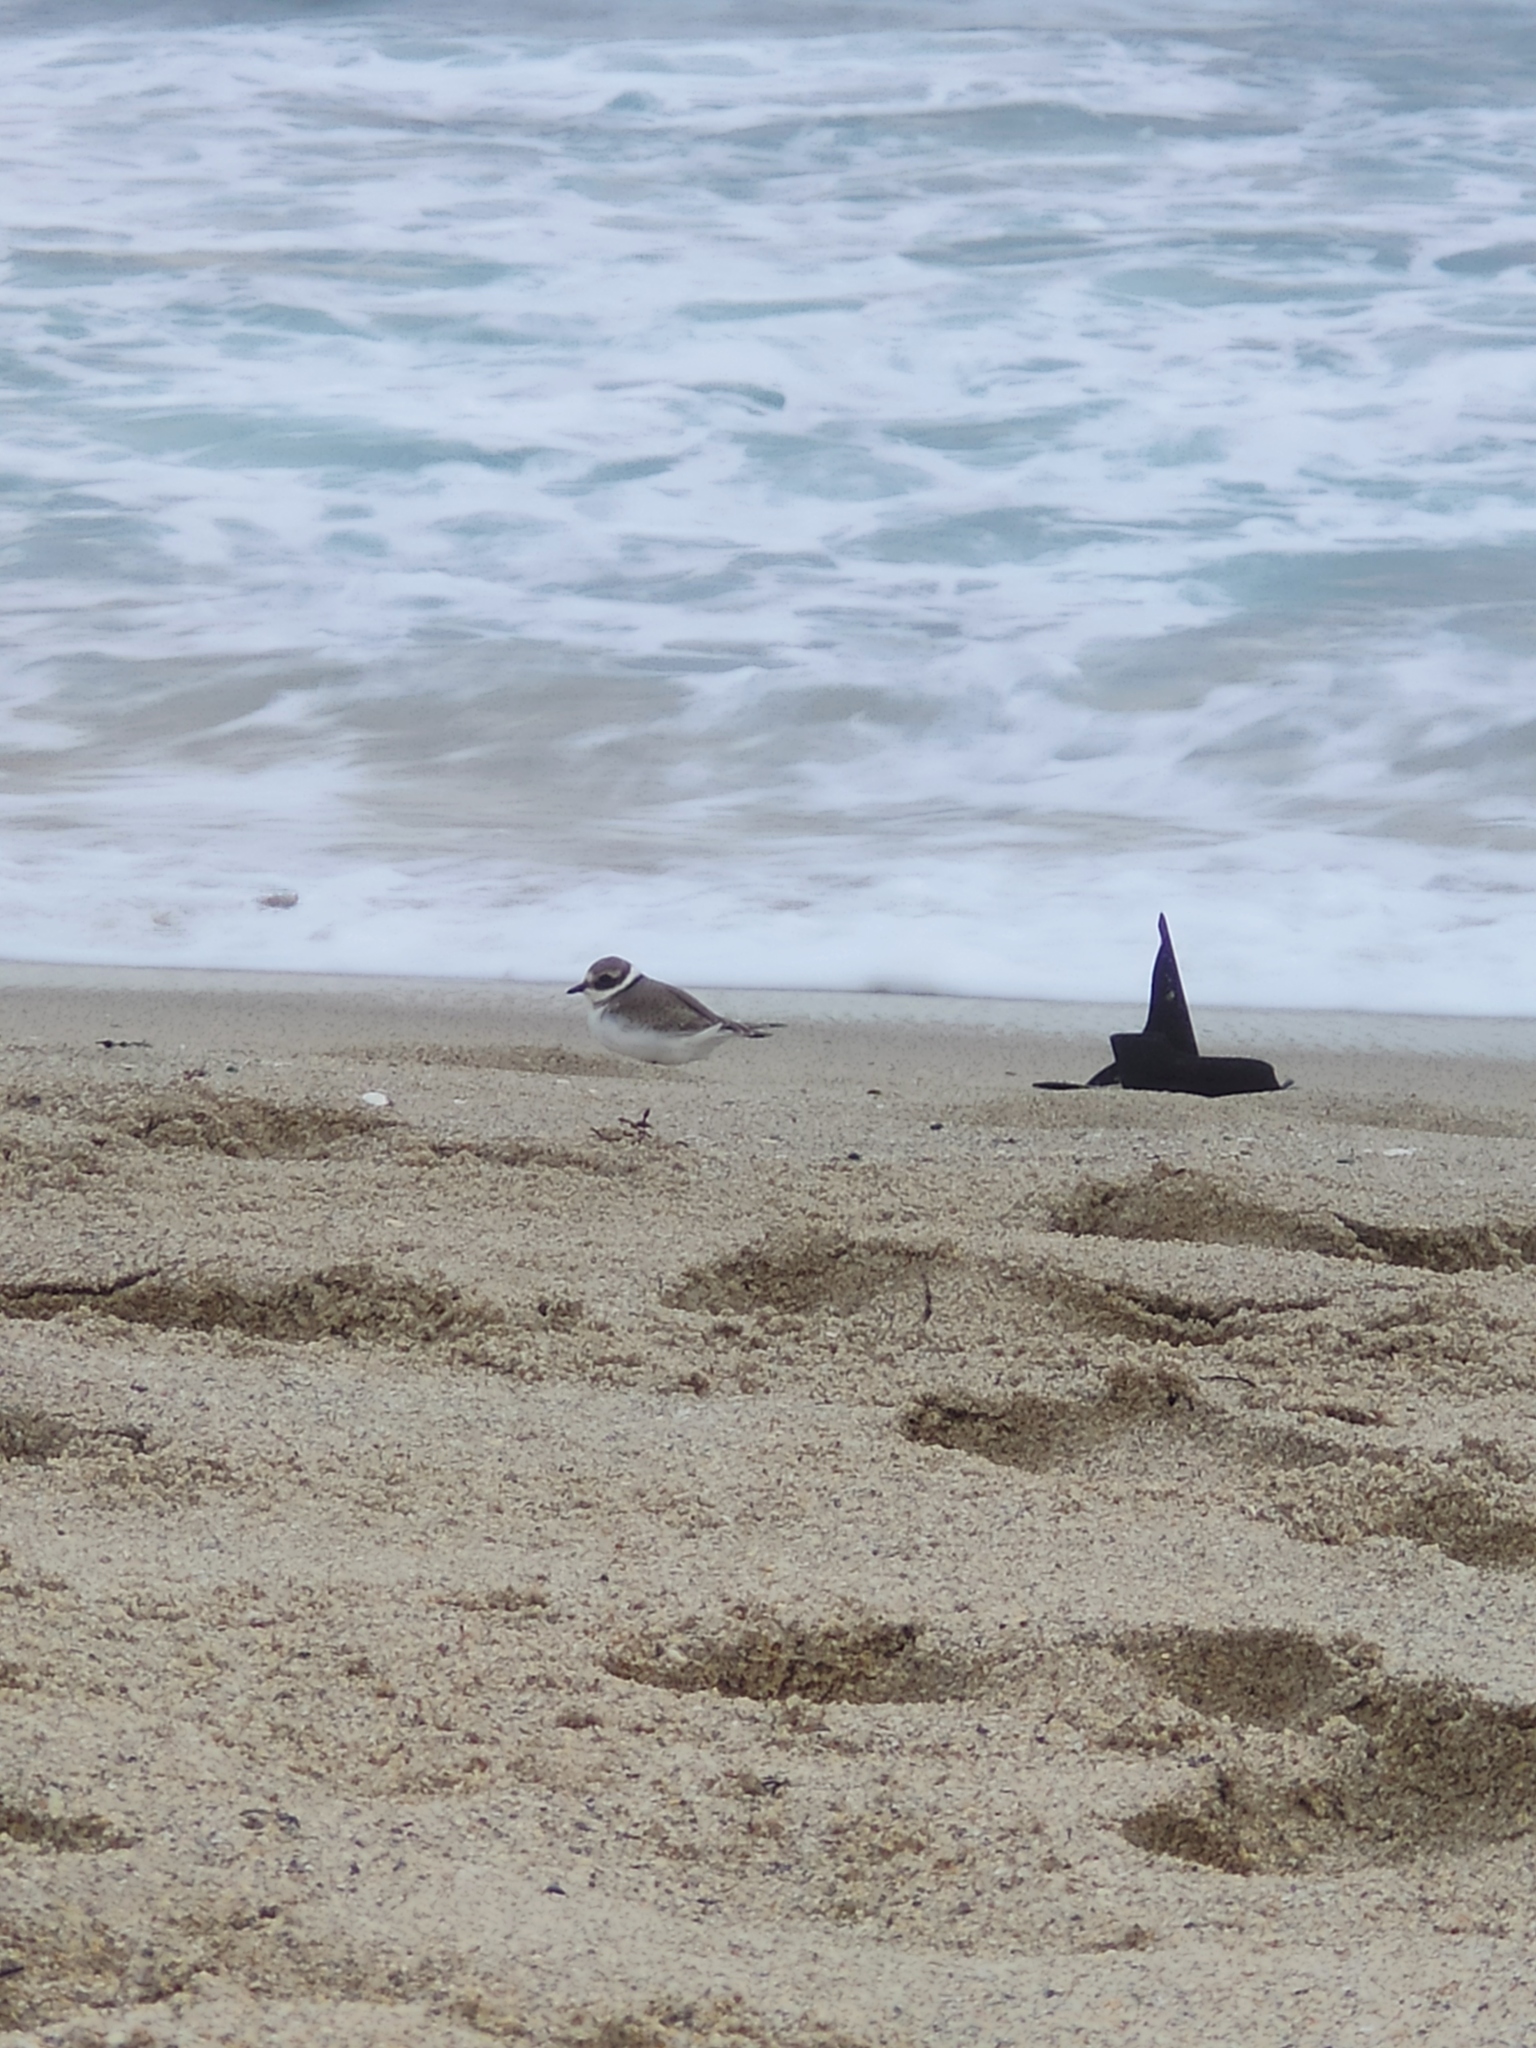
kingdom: Animalia
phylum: Chordata
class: Aves
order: Charadriiformes
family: Charadriidae
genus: Charadrius
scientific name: Charadrius hiaticula
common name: Common ringed plover
